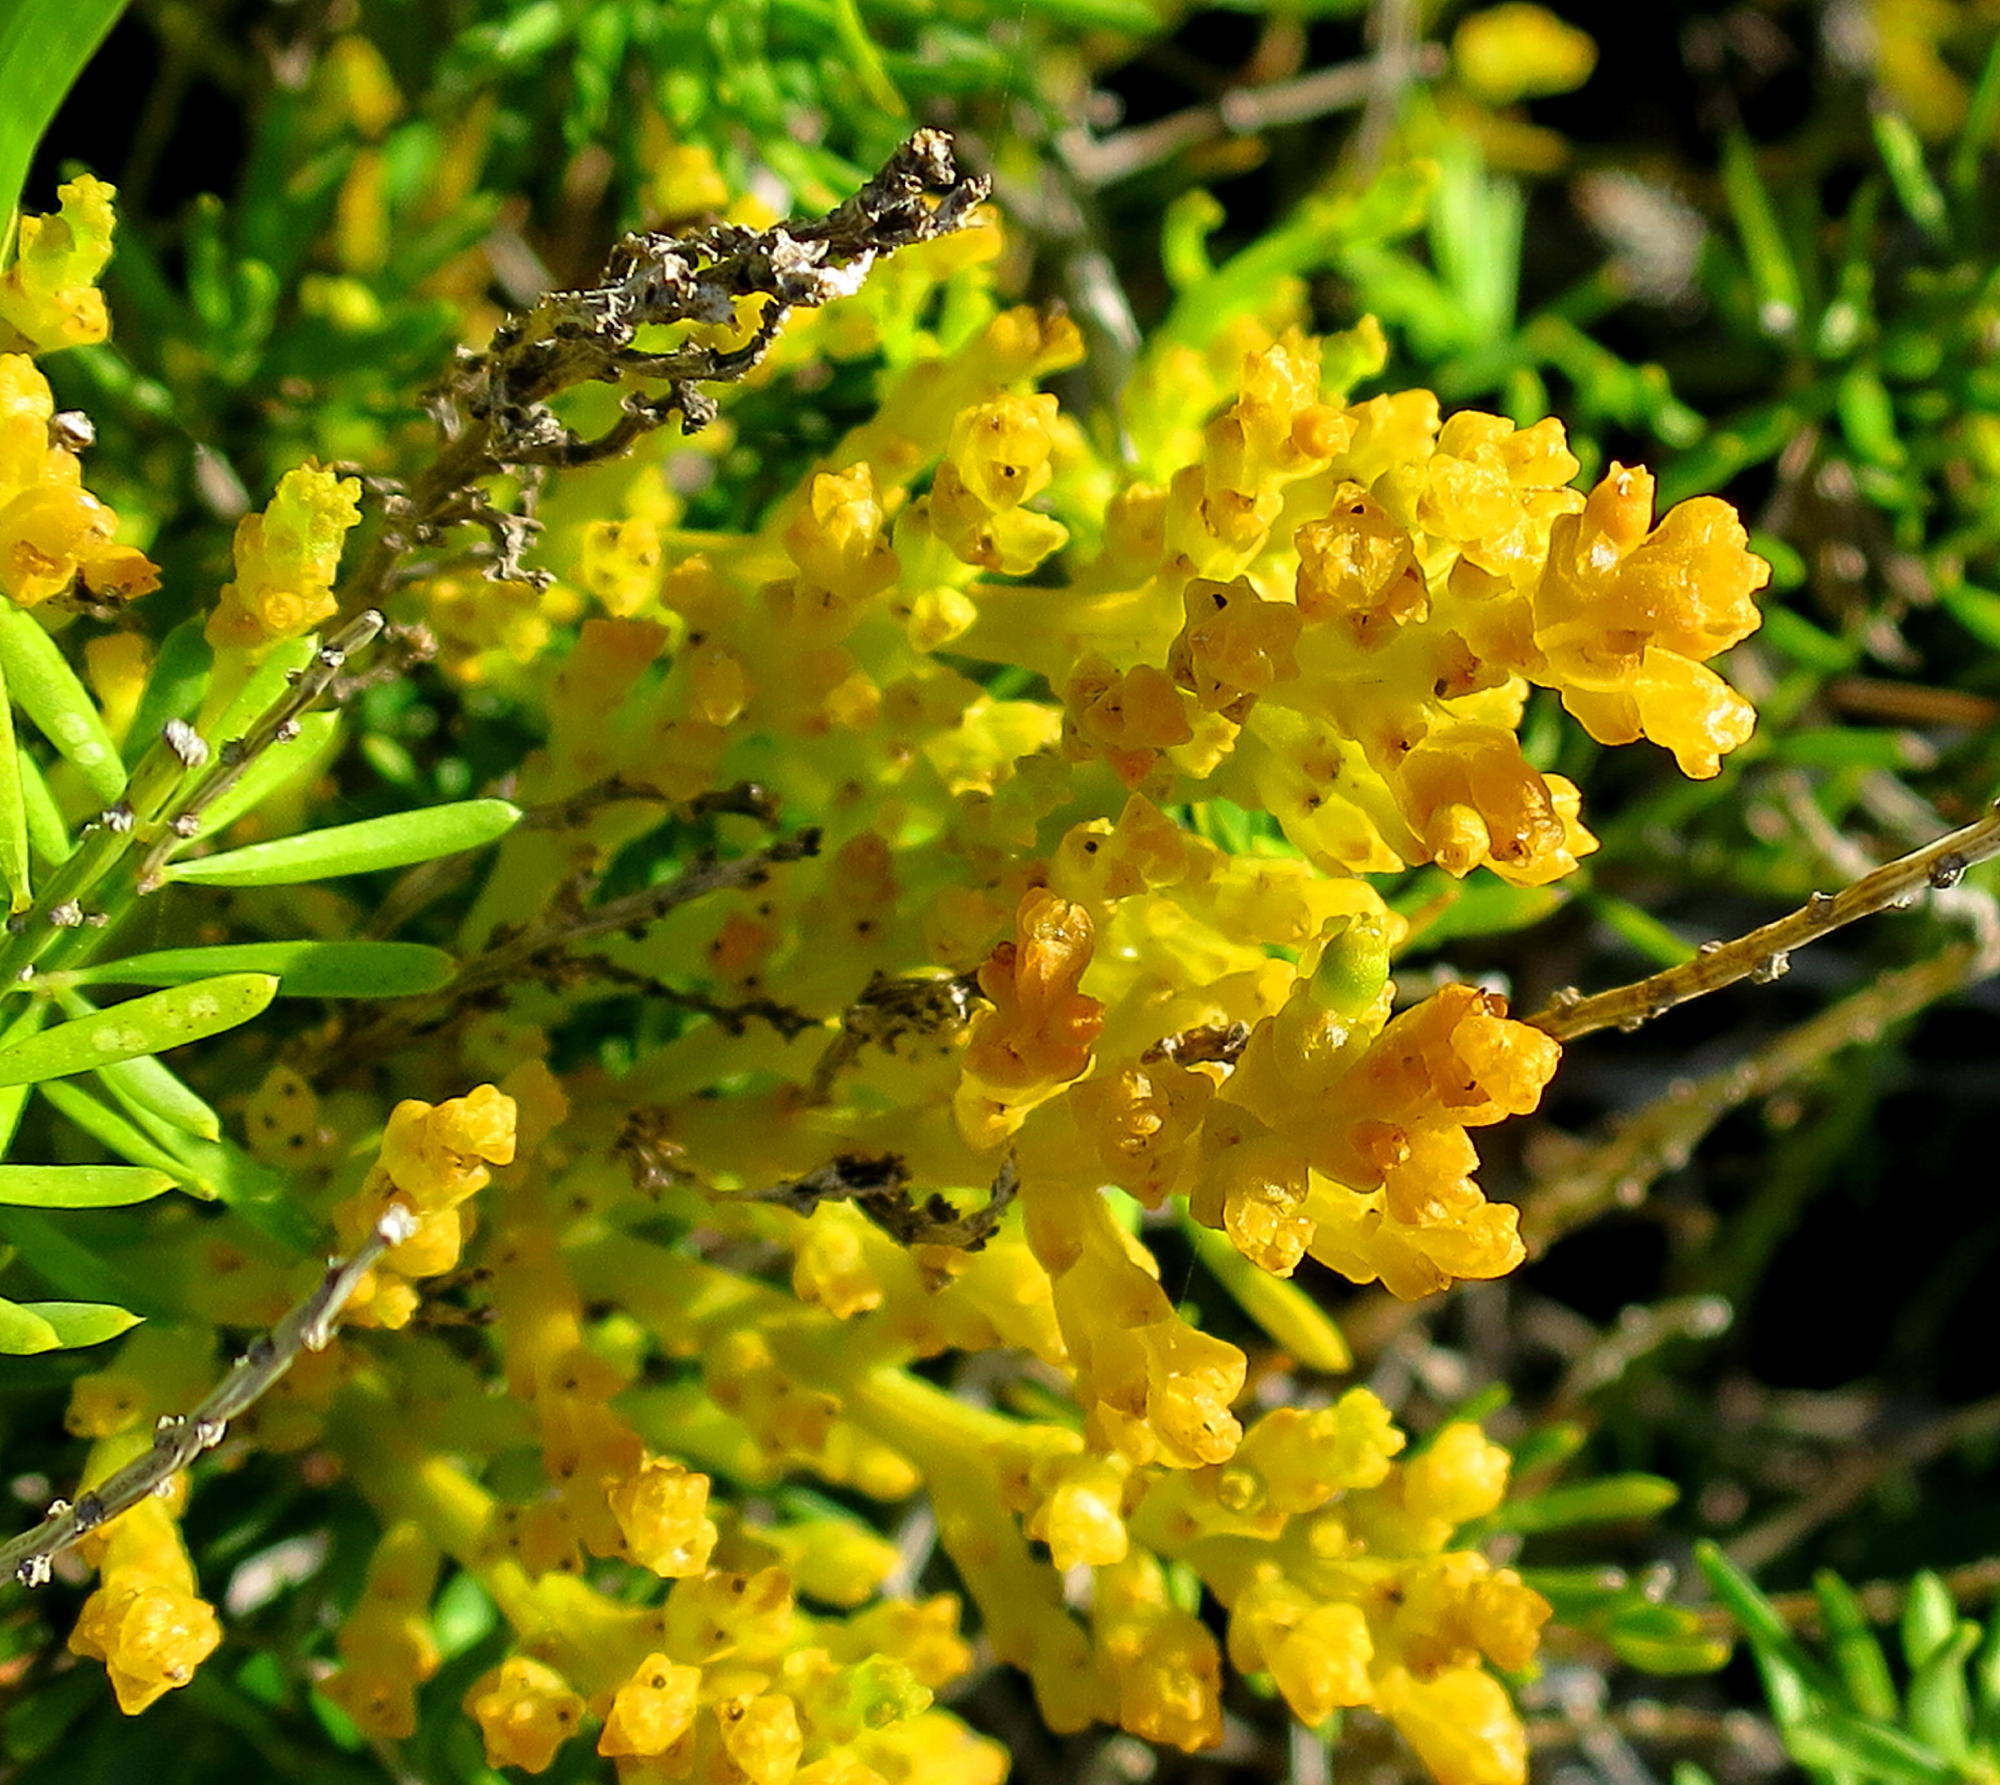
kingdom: Plantae
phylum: Tracheophyta
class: Magnoliopsida
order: Santalales
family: Thesiaceae
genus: Thesium
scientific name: Thesium fragile
